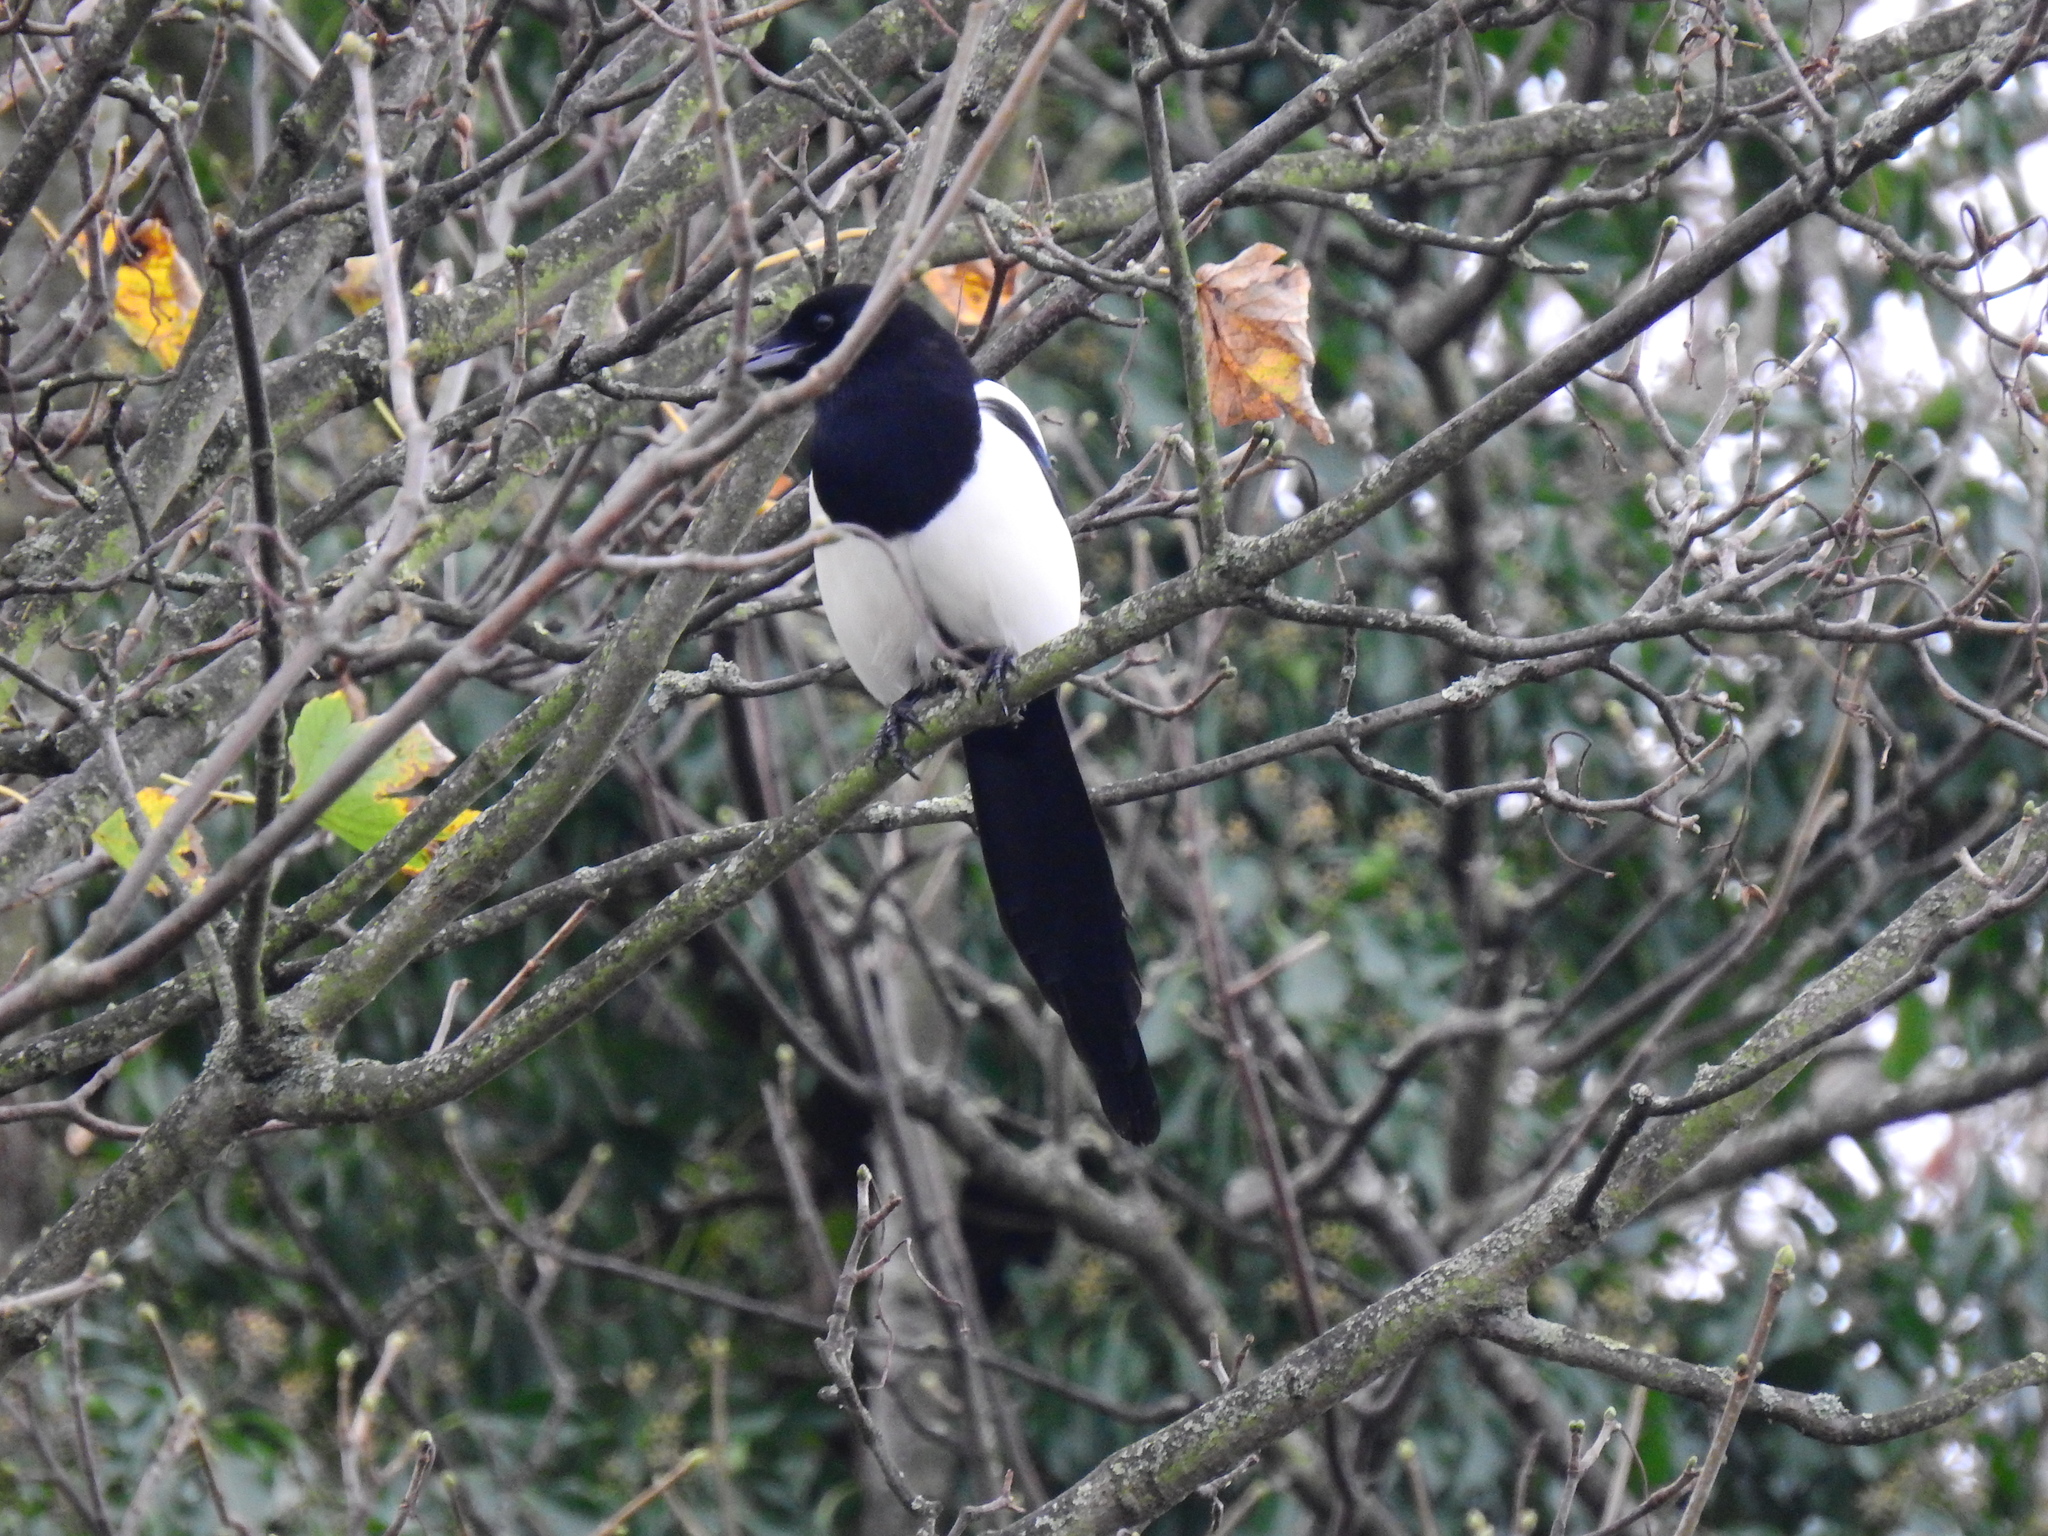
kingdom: Animalia
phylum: Chordata
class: Aves
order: Passeriformes
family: Corvidae
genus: Pica
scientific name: Pica pica
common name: Eurasian magpie
